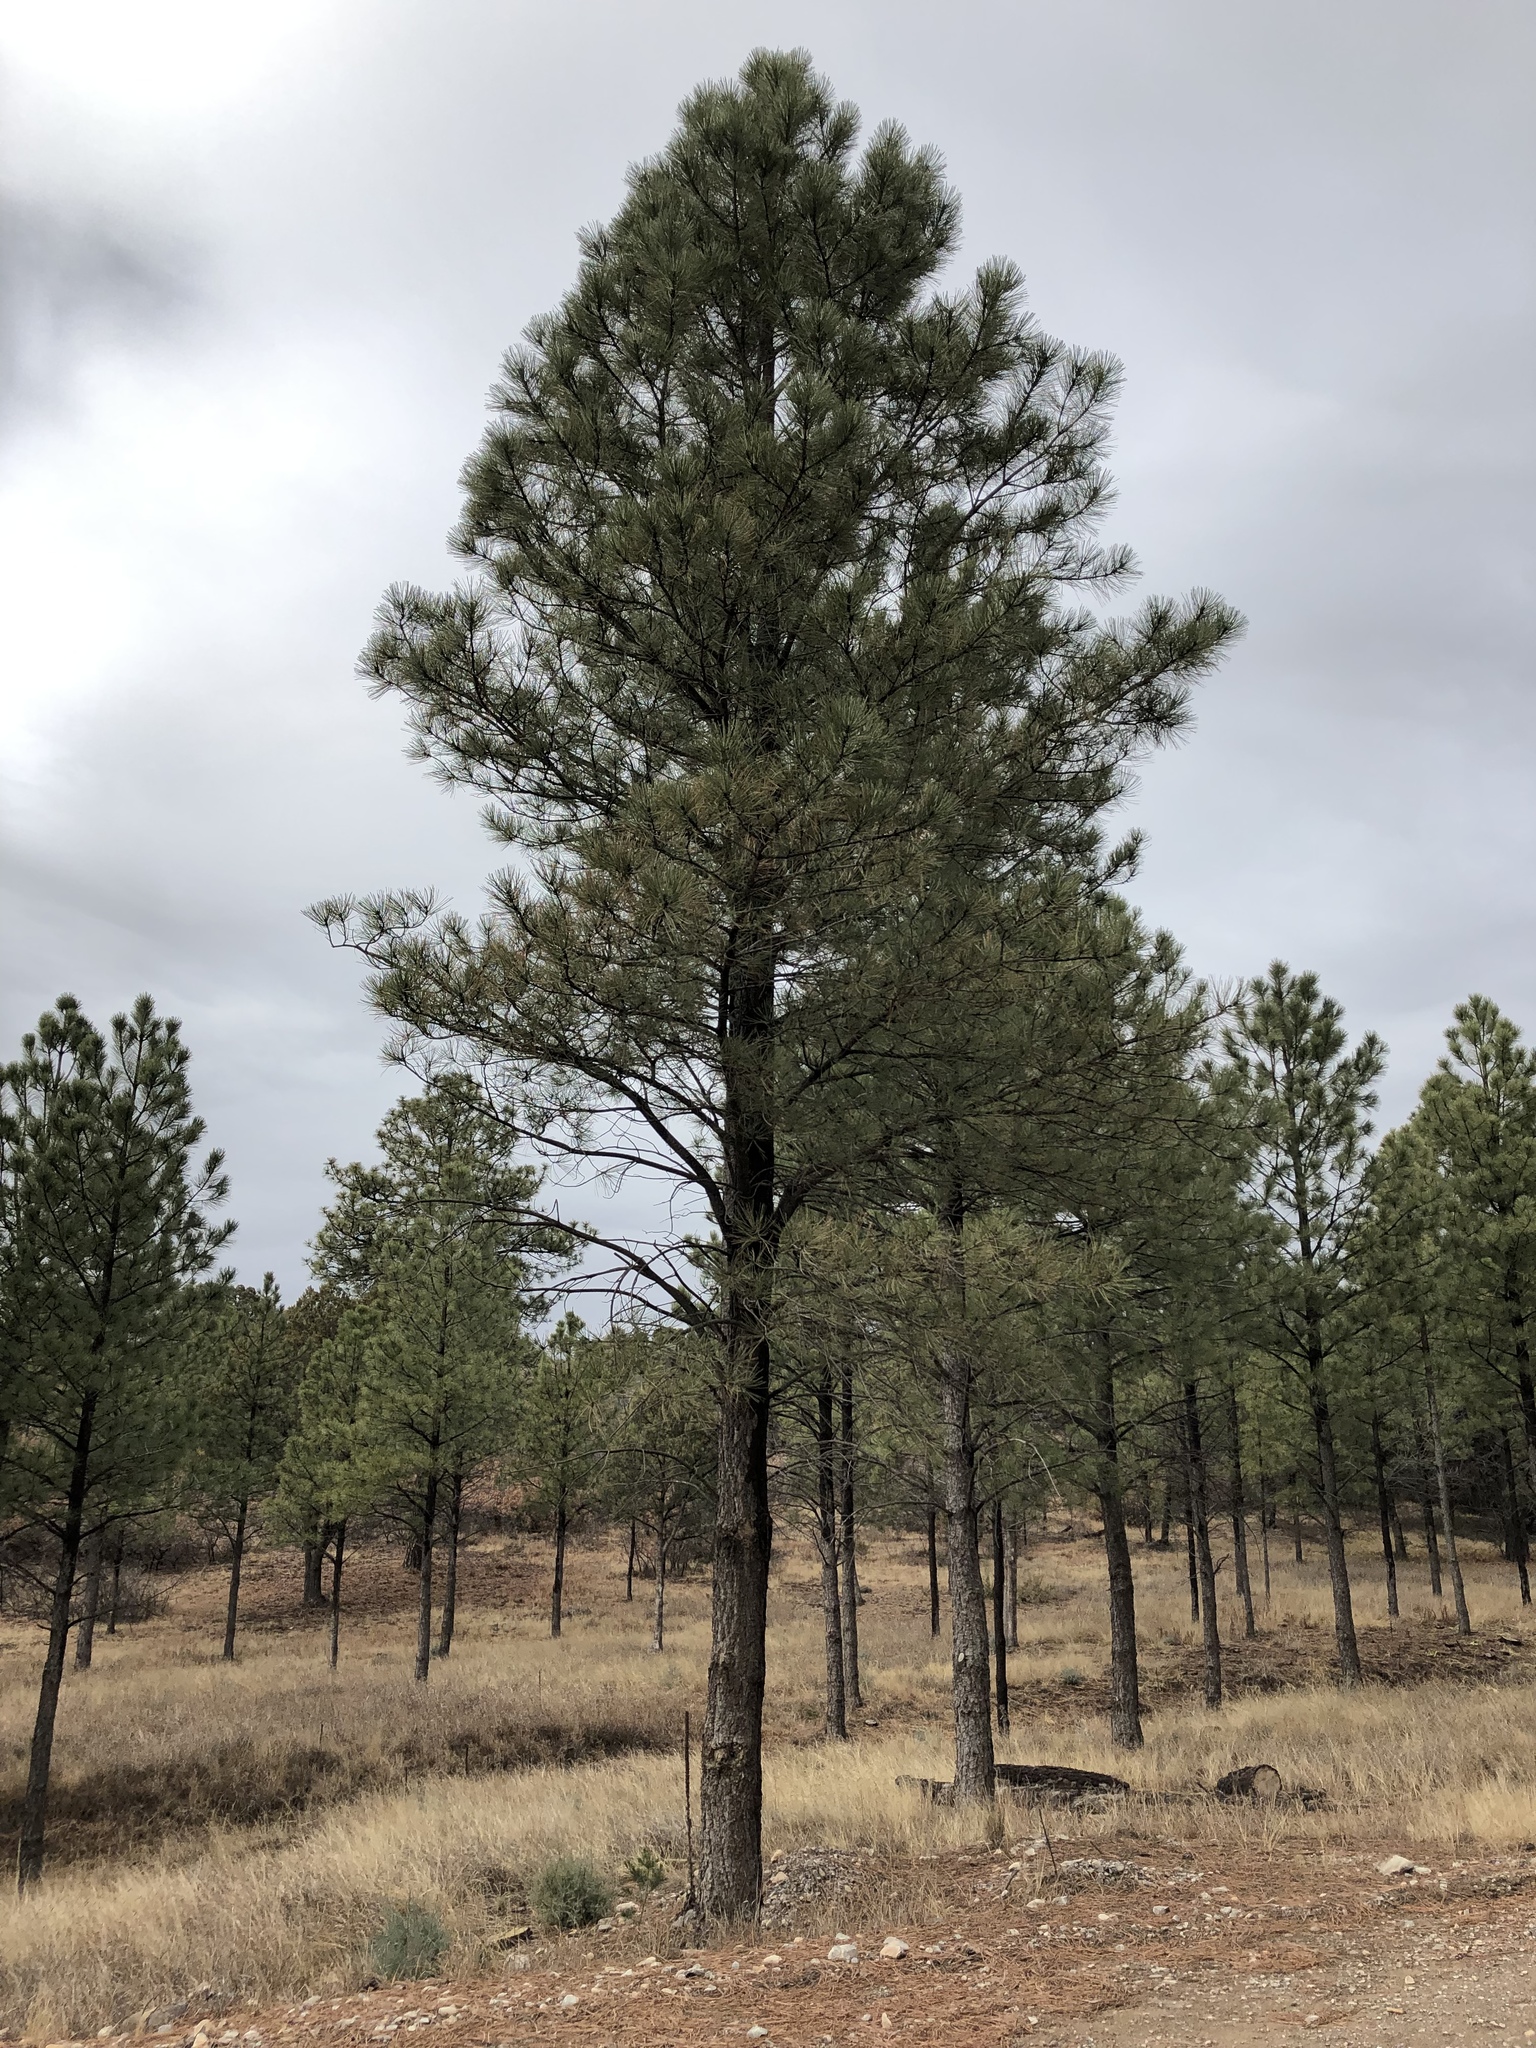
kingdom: Plantae
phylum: Tracheophyta
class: Pinopsida
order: Pinales
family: Pinaceae
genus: Pinus
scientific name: Pinus ponderosa
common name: Western yellow-pine
